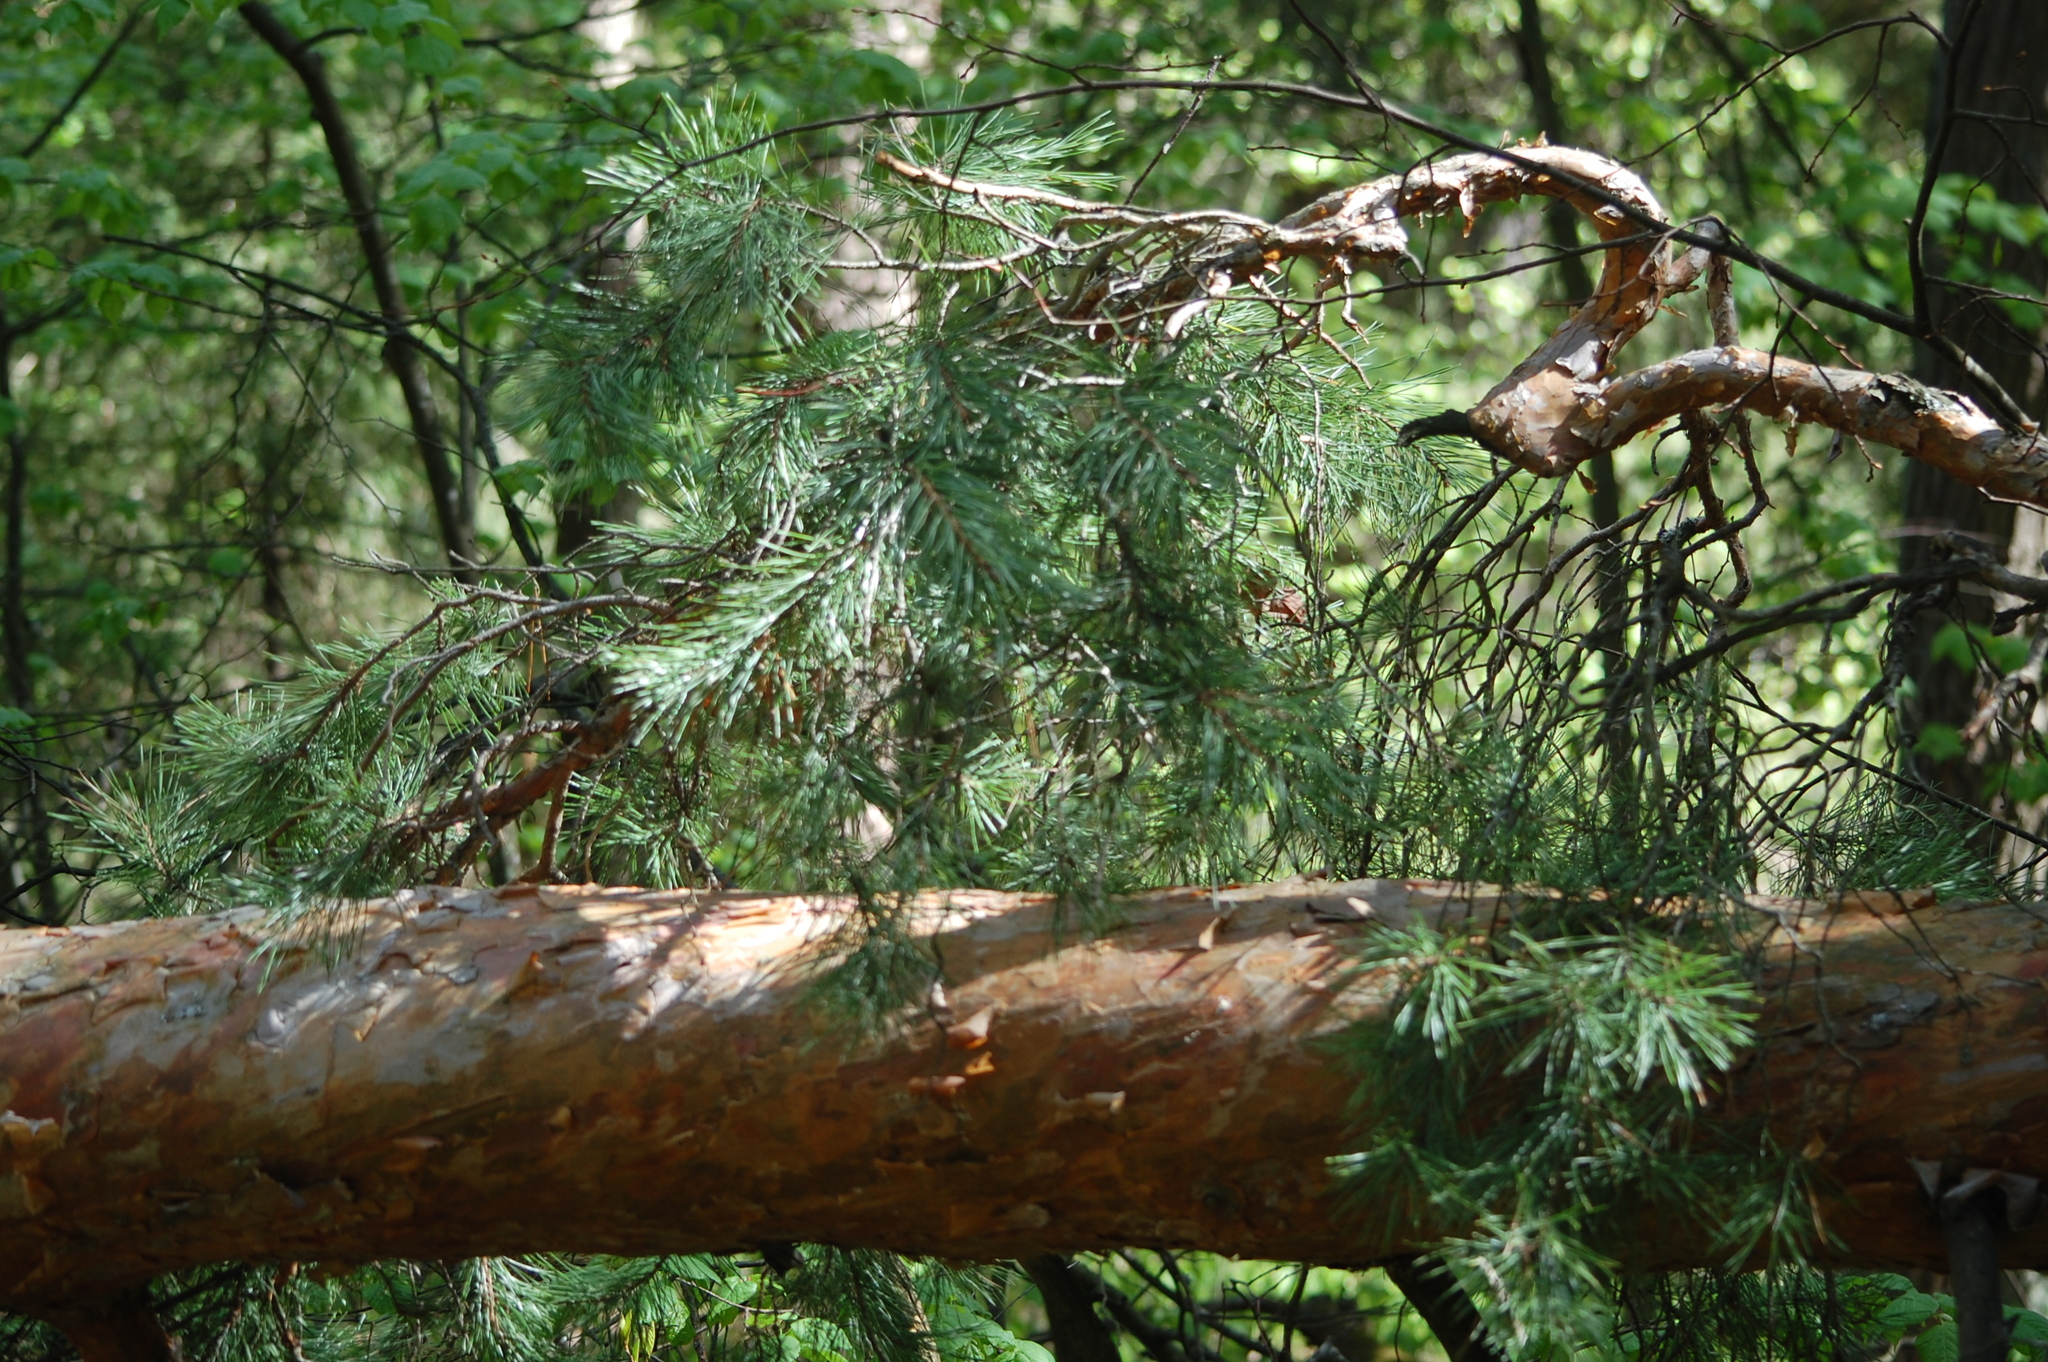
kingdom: Plantae
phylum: Tracheophyta
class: Pinopsida
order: Pinales
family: Pinaceae
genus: Pinus
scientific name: Pinus sylvestris
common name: Scots pine
